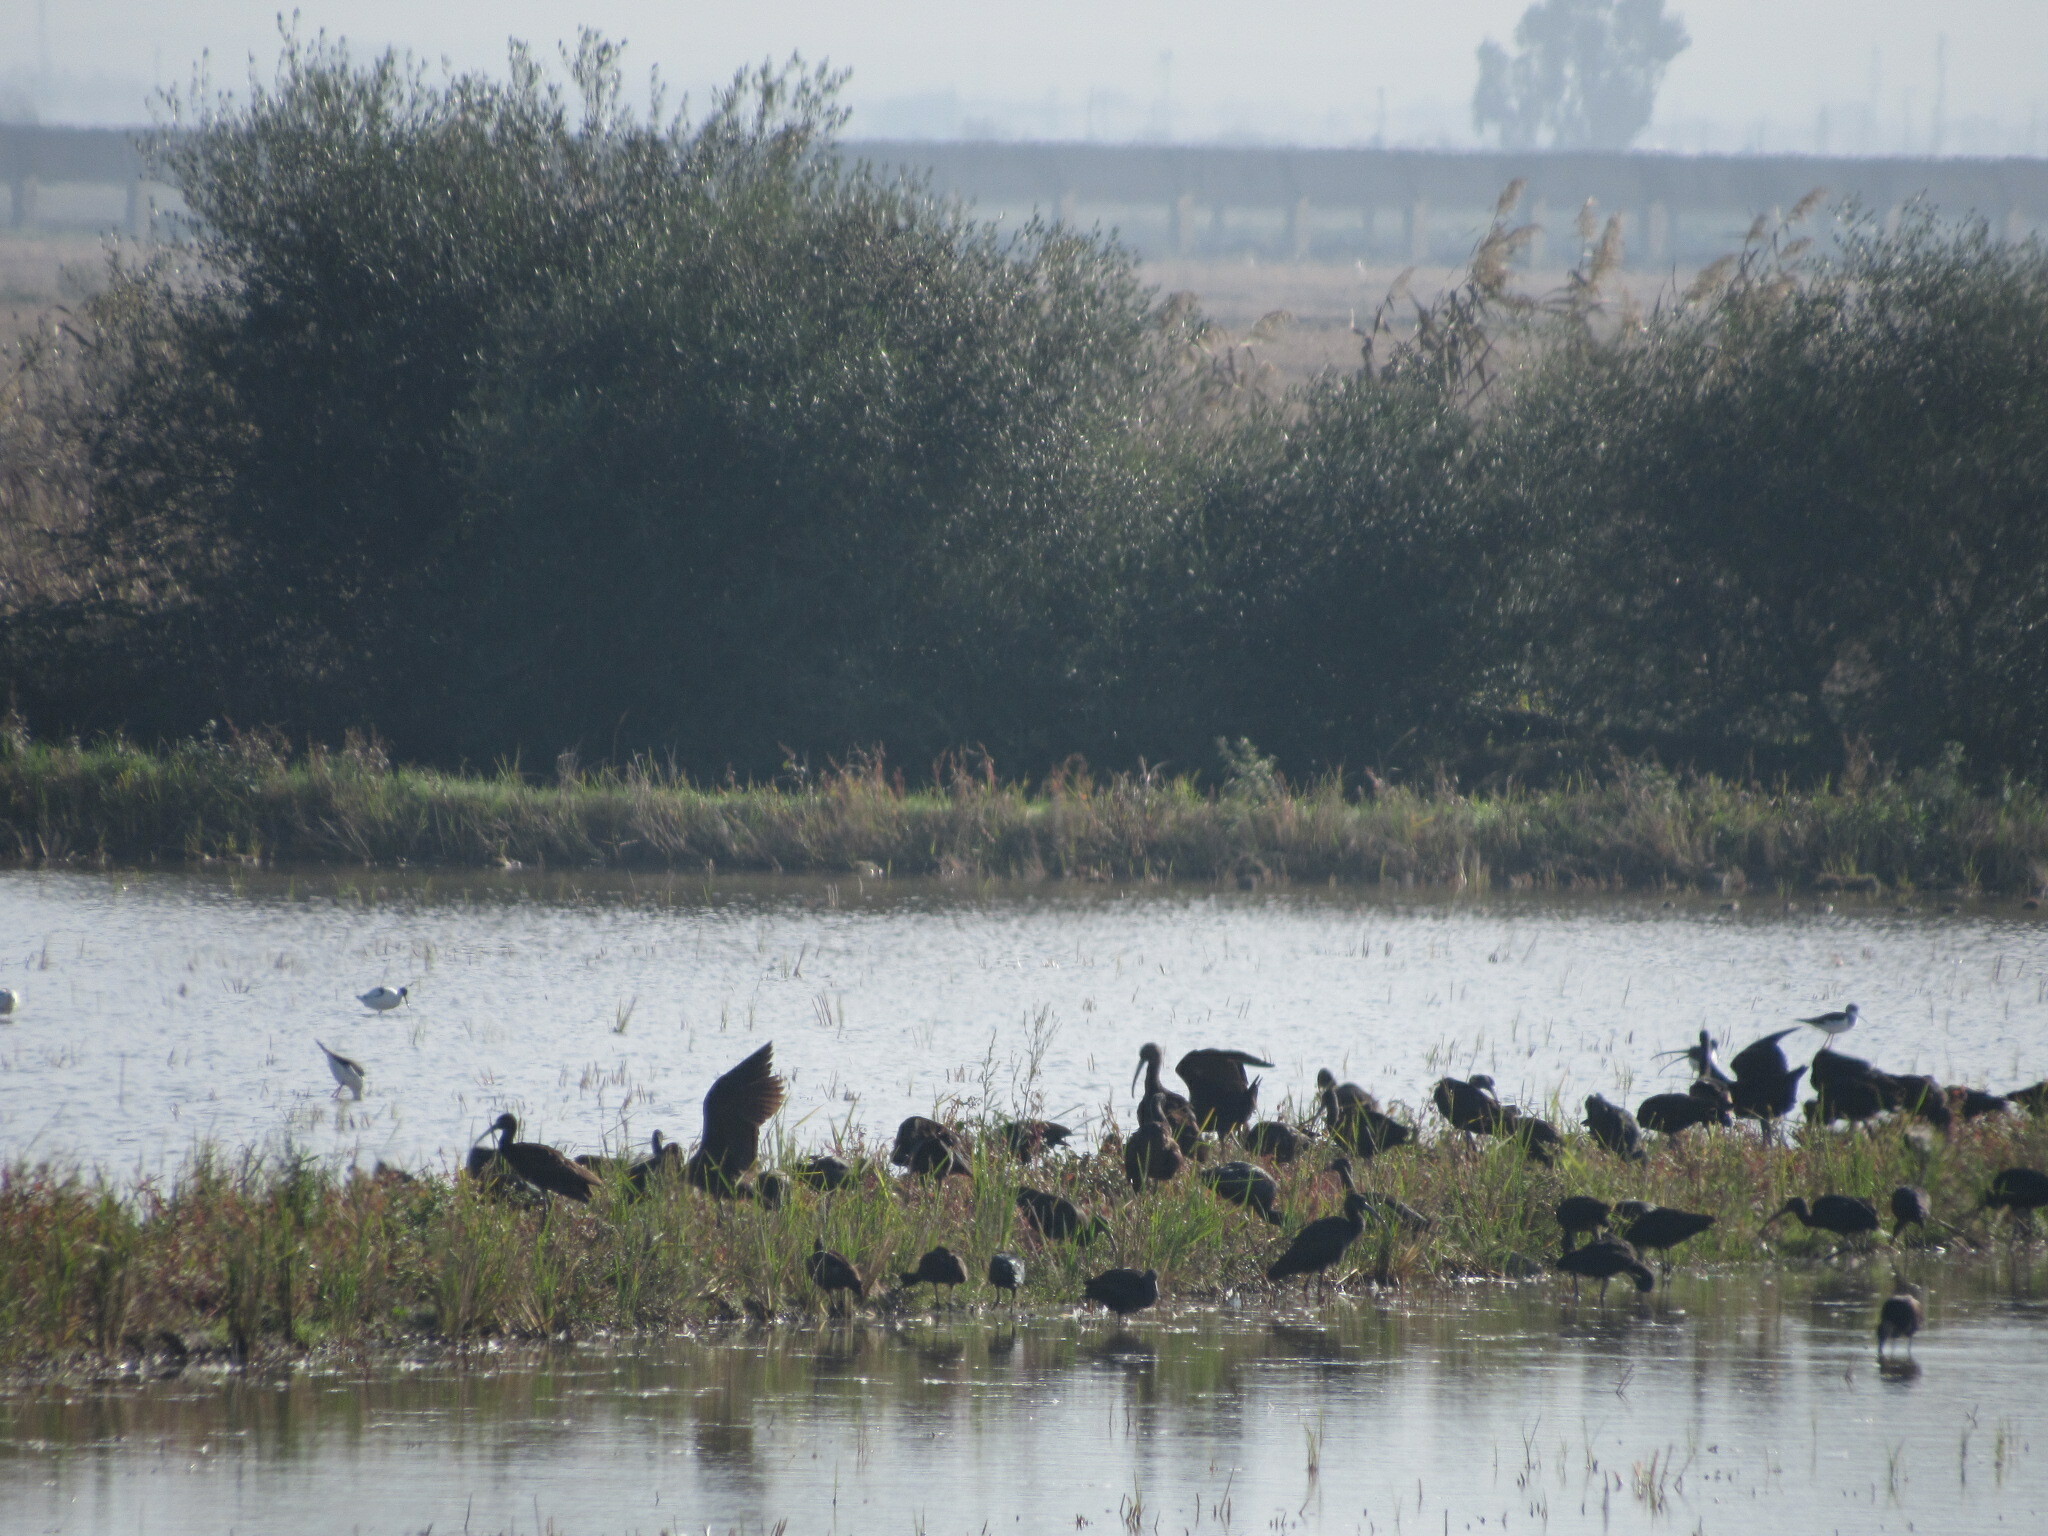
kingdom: Animalia
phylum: Chordata
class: Aves
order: Pelecaniformes
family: Threskiornithidae
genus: Plegadis
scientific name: Plegadis falcinellus
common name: Glossy ibis
